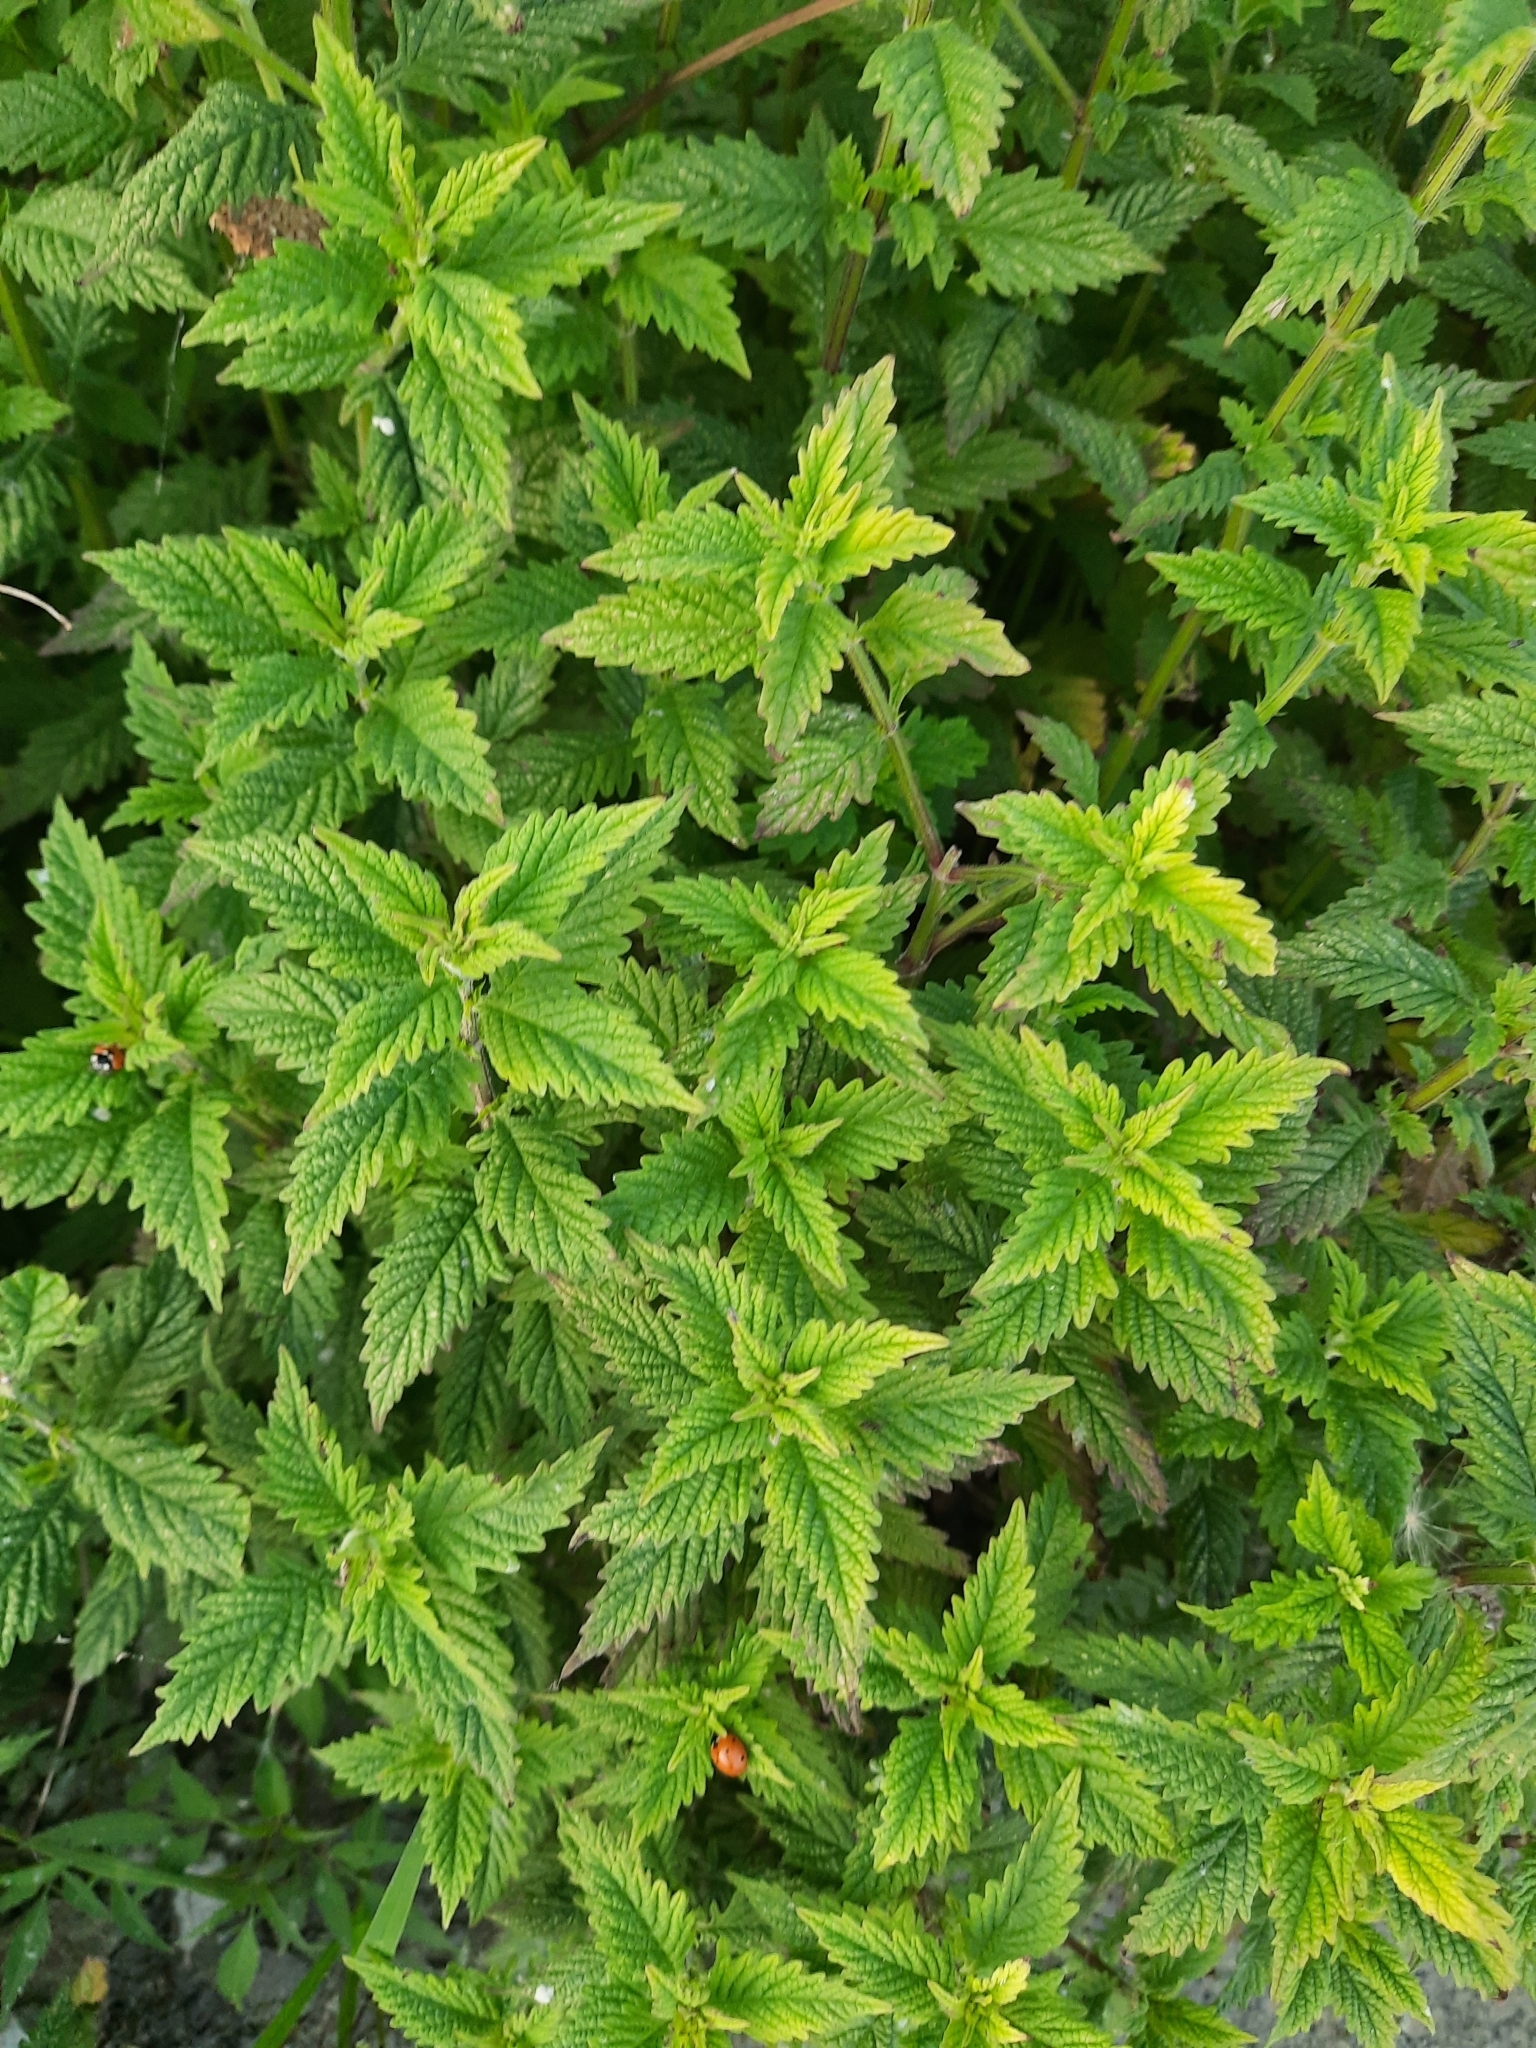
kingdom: Plantae
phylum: Tracheophyta
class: Magnoliopsida
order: Lamiales
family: Lamiaceae
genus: Lycopus
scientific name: Lycopus europaeus
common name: European bugleweed
